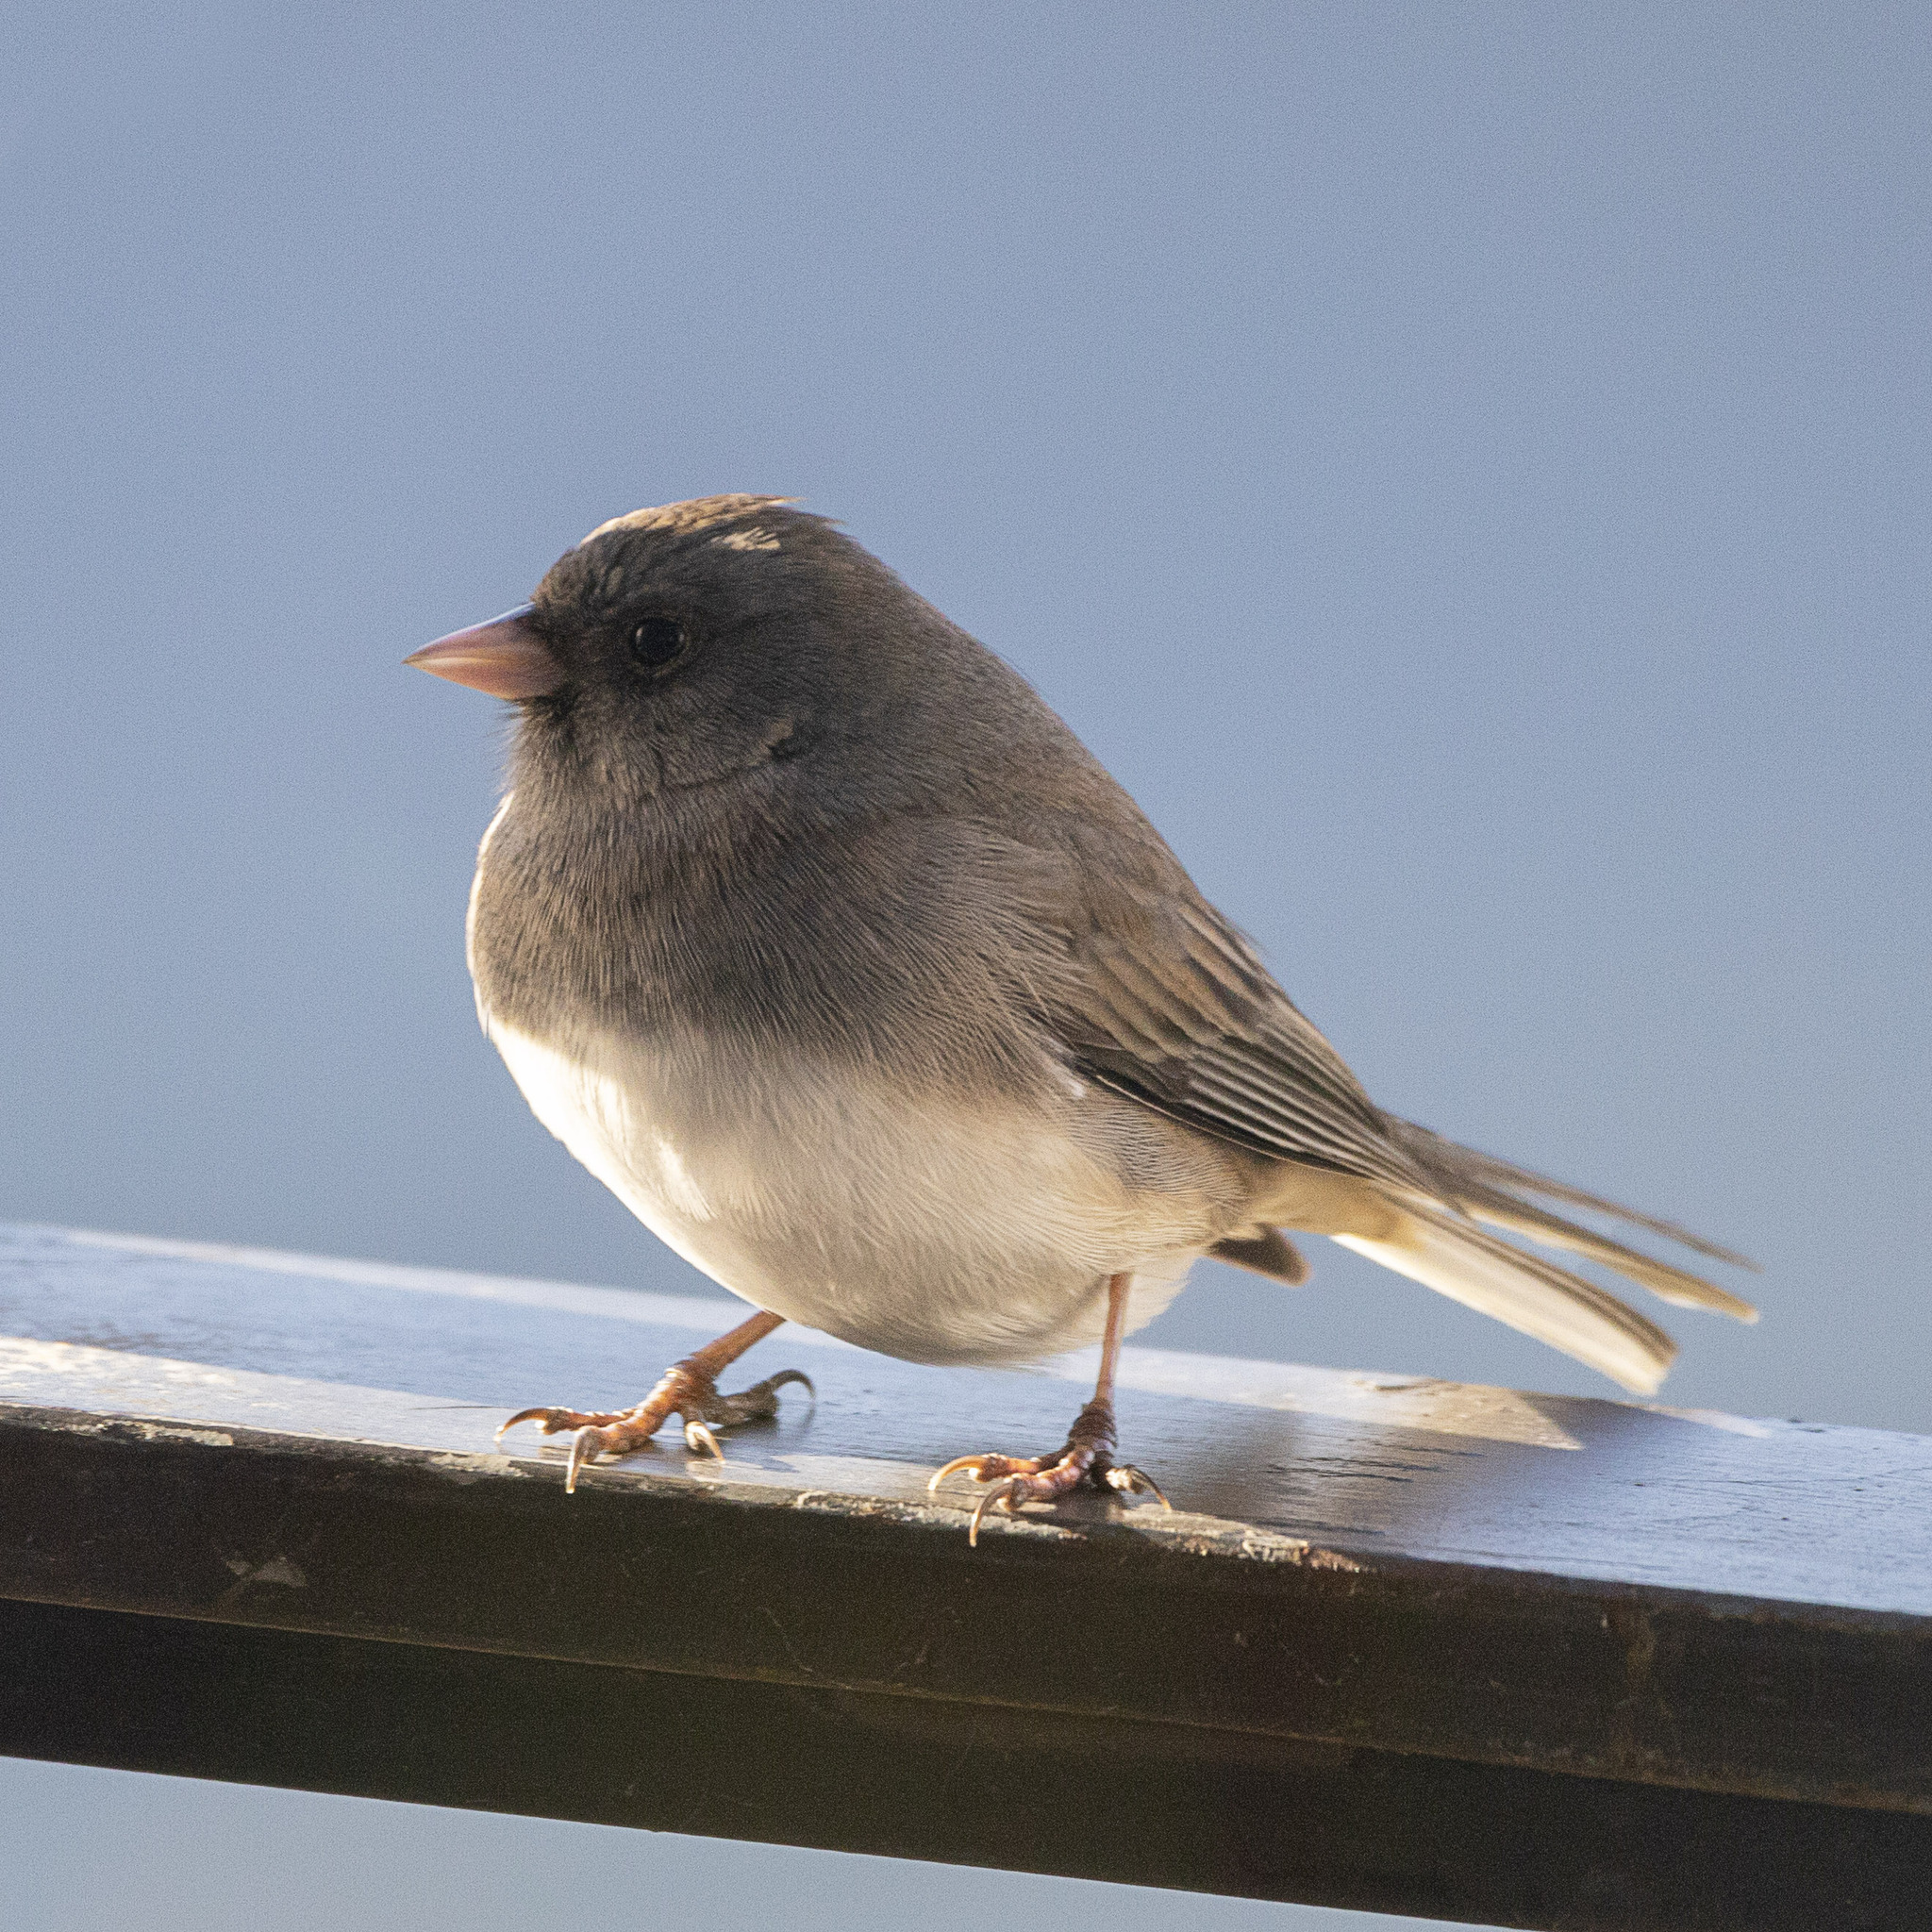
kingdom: Animalia
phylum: Chordata
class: Aves
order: Passeriformes
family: Passerellidae
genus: Junco
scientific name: Junco hyemalis
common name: Dark-eyed junco
